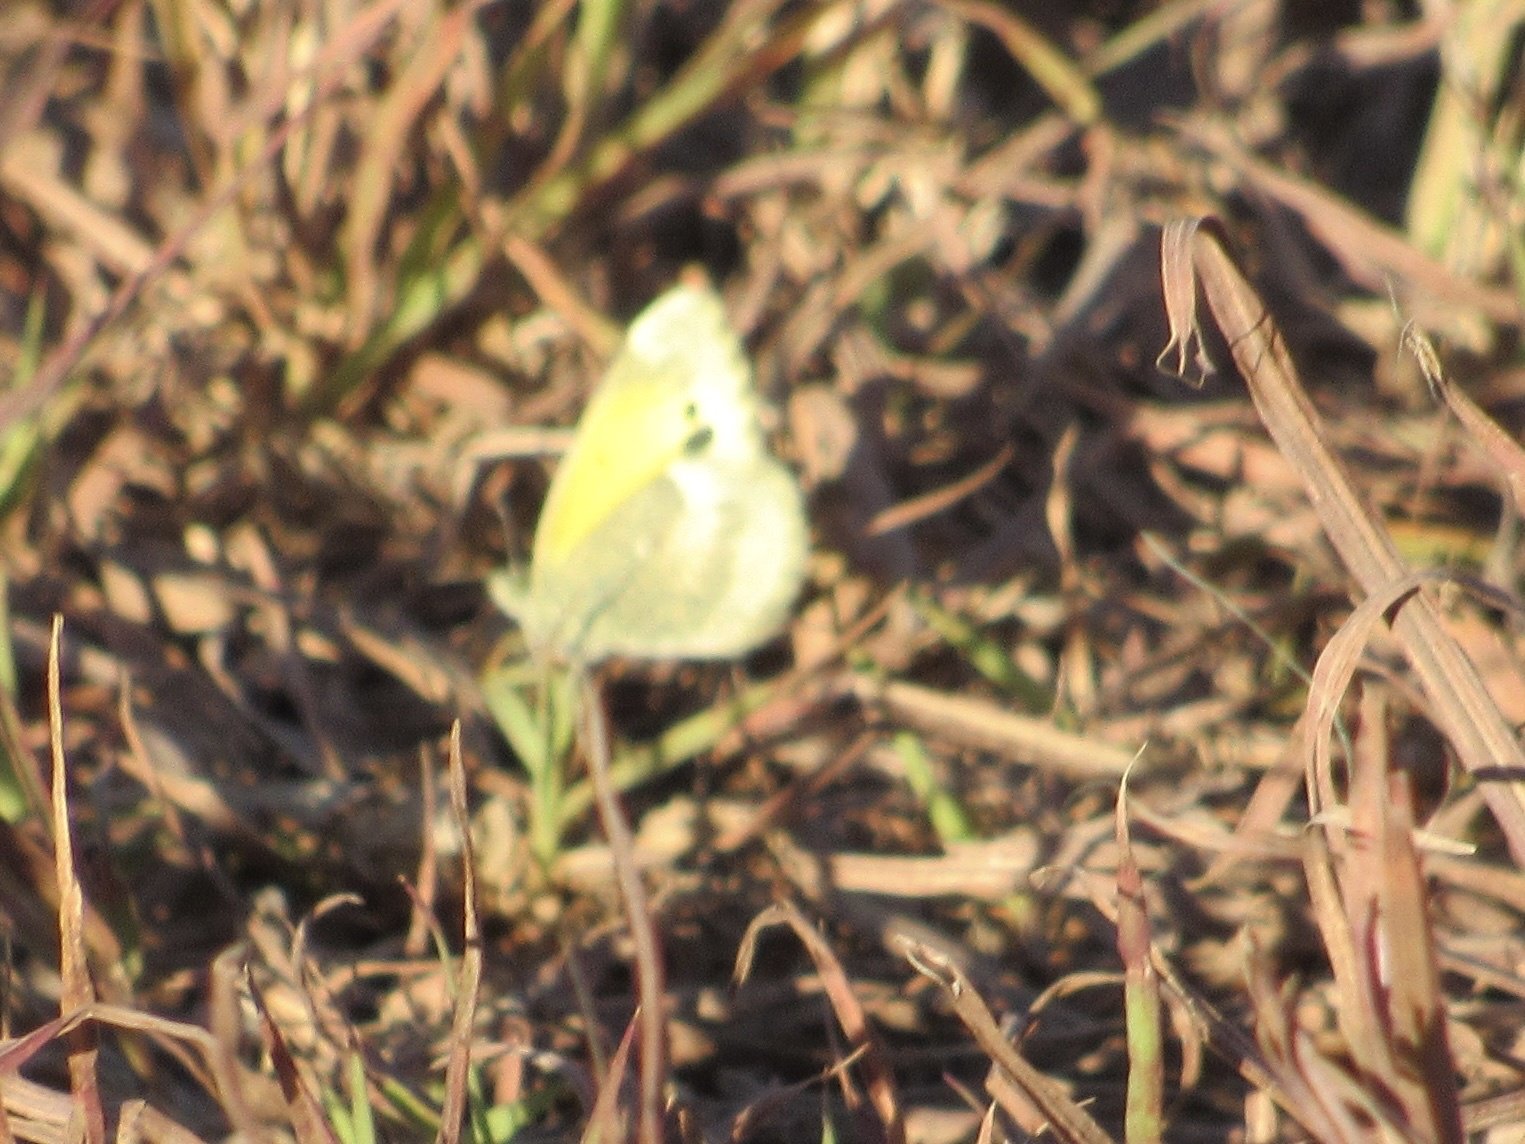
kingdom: Animalia
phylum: Arthropoda
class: Insecta
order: Lepidoptera
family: Pieridae
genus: Nathalis
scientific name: Nathalis iole
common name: Dainty sulphur
